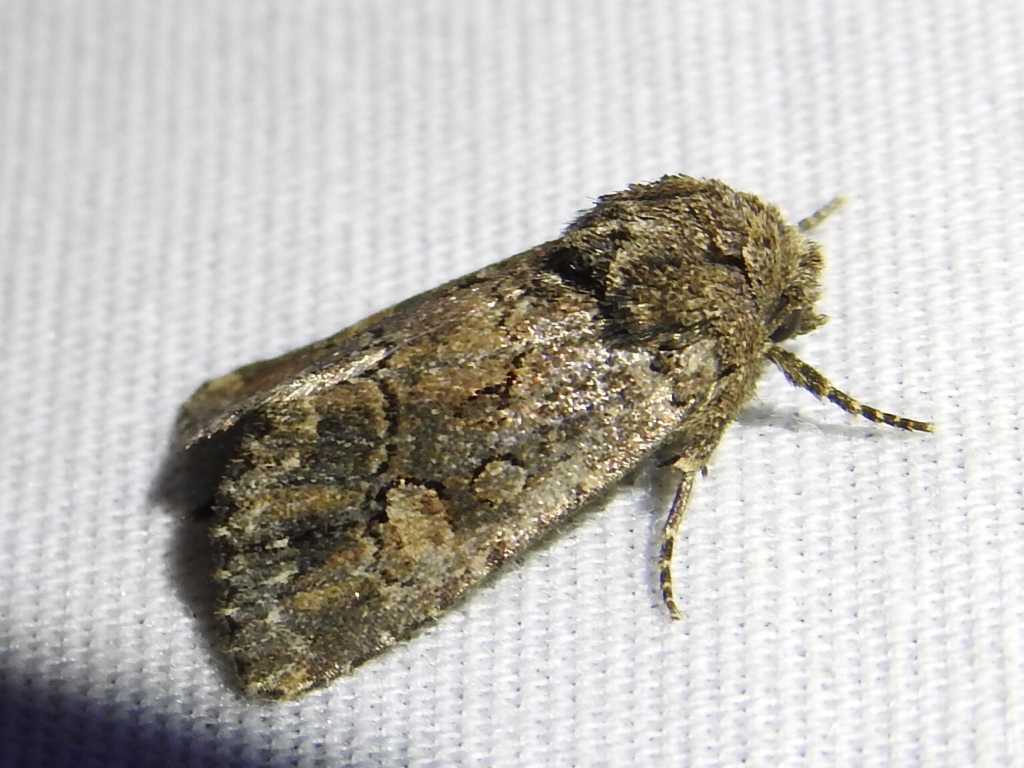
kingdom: Animalia
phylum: Arthropoda
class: Insecta
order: Lepidoptera
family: Noctuidae
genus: Hexorthodes
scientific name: Hexorthodes serrata
